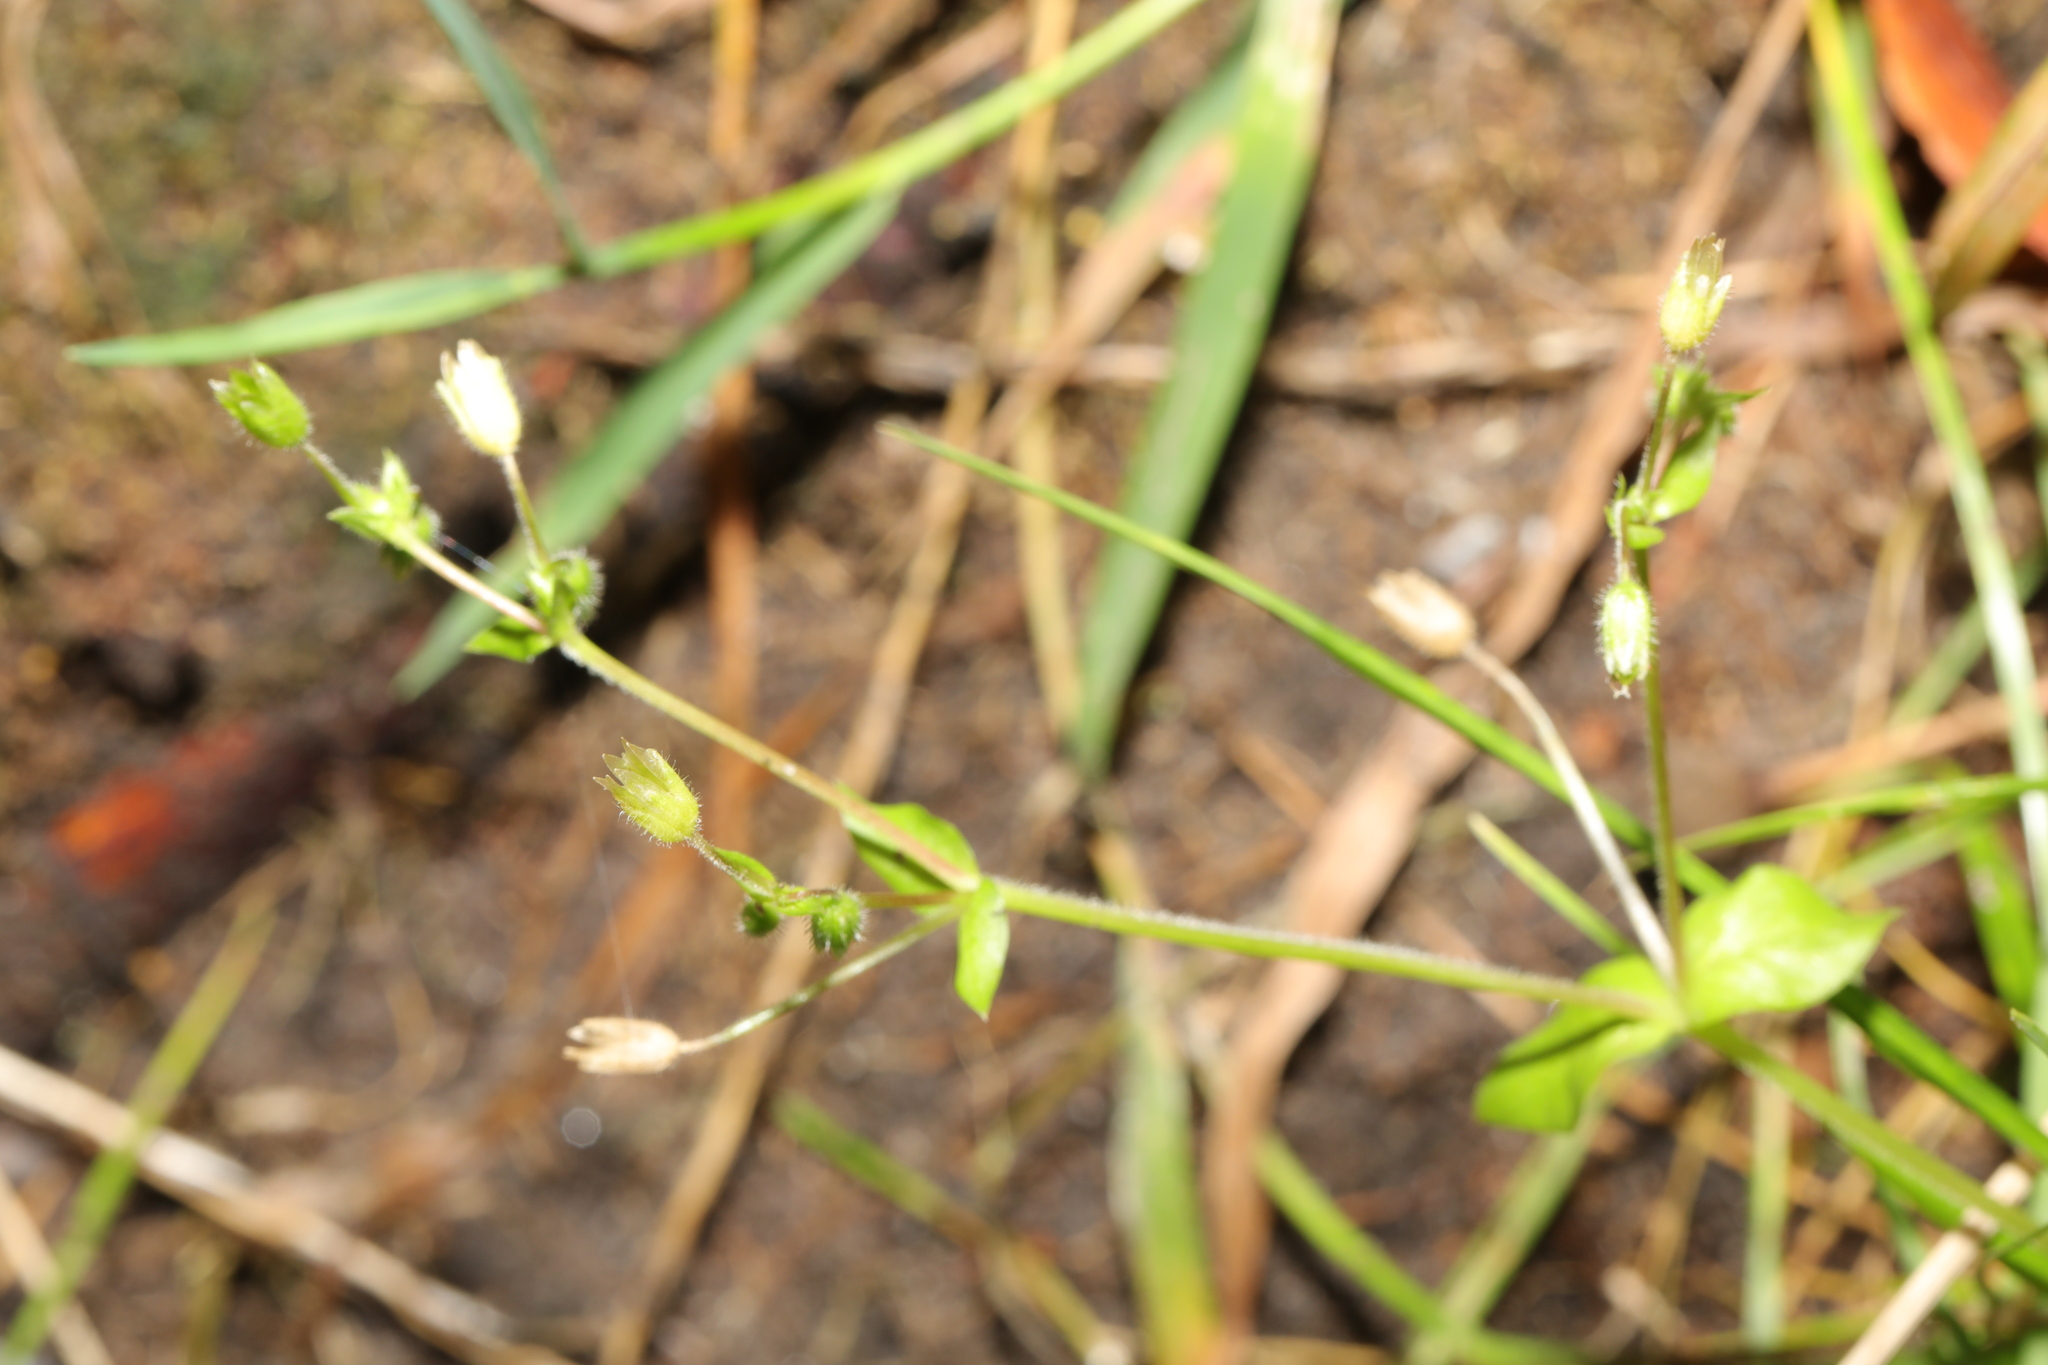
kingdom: Plantae
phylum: Tracheophyta
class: Magnoliopsida
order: Caryophyllales
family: Caryophyllaceae
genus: Stellaria
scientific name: Stellaria media
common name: Common chickweed
